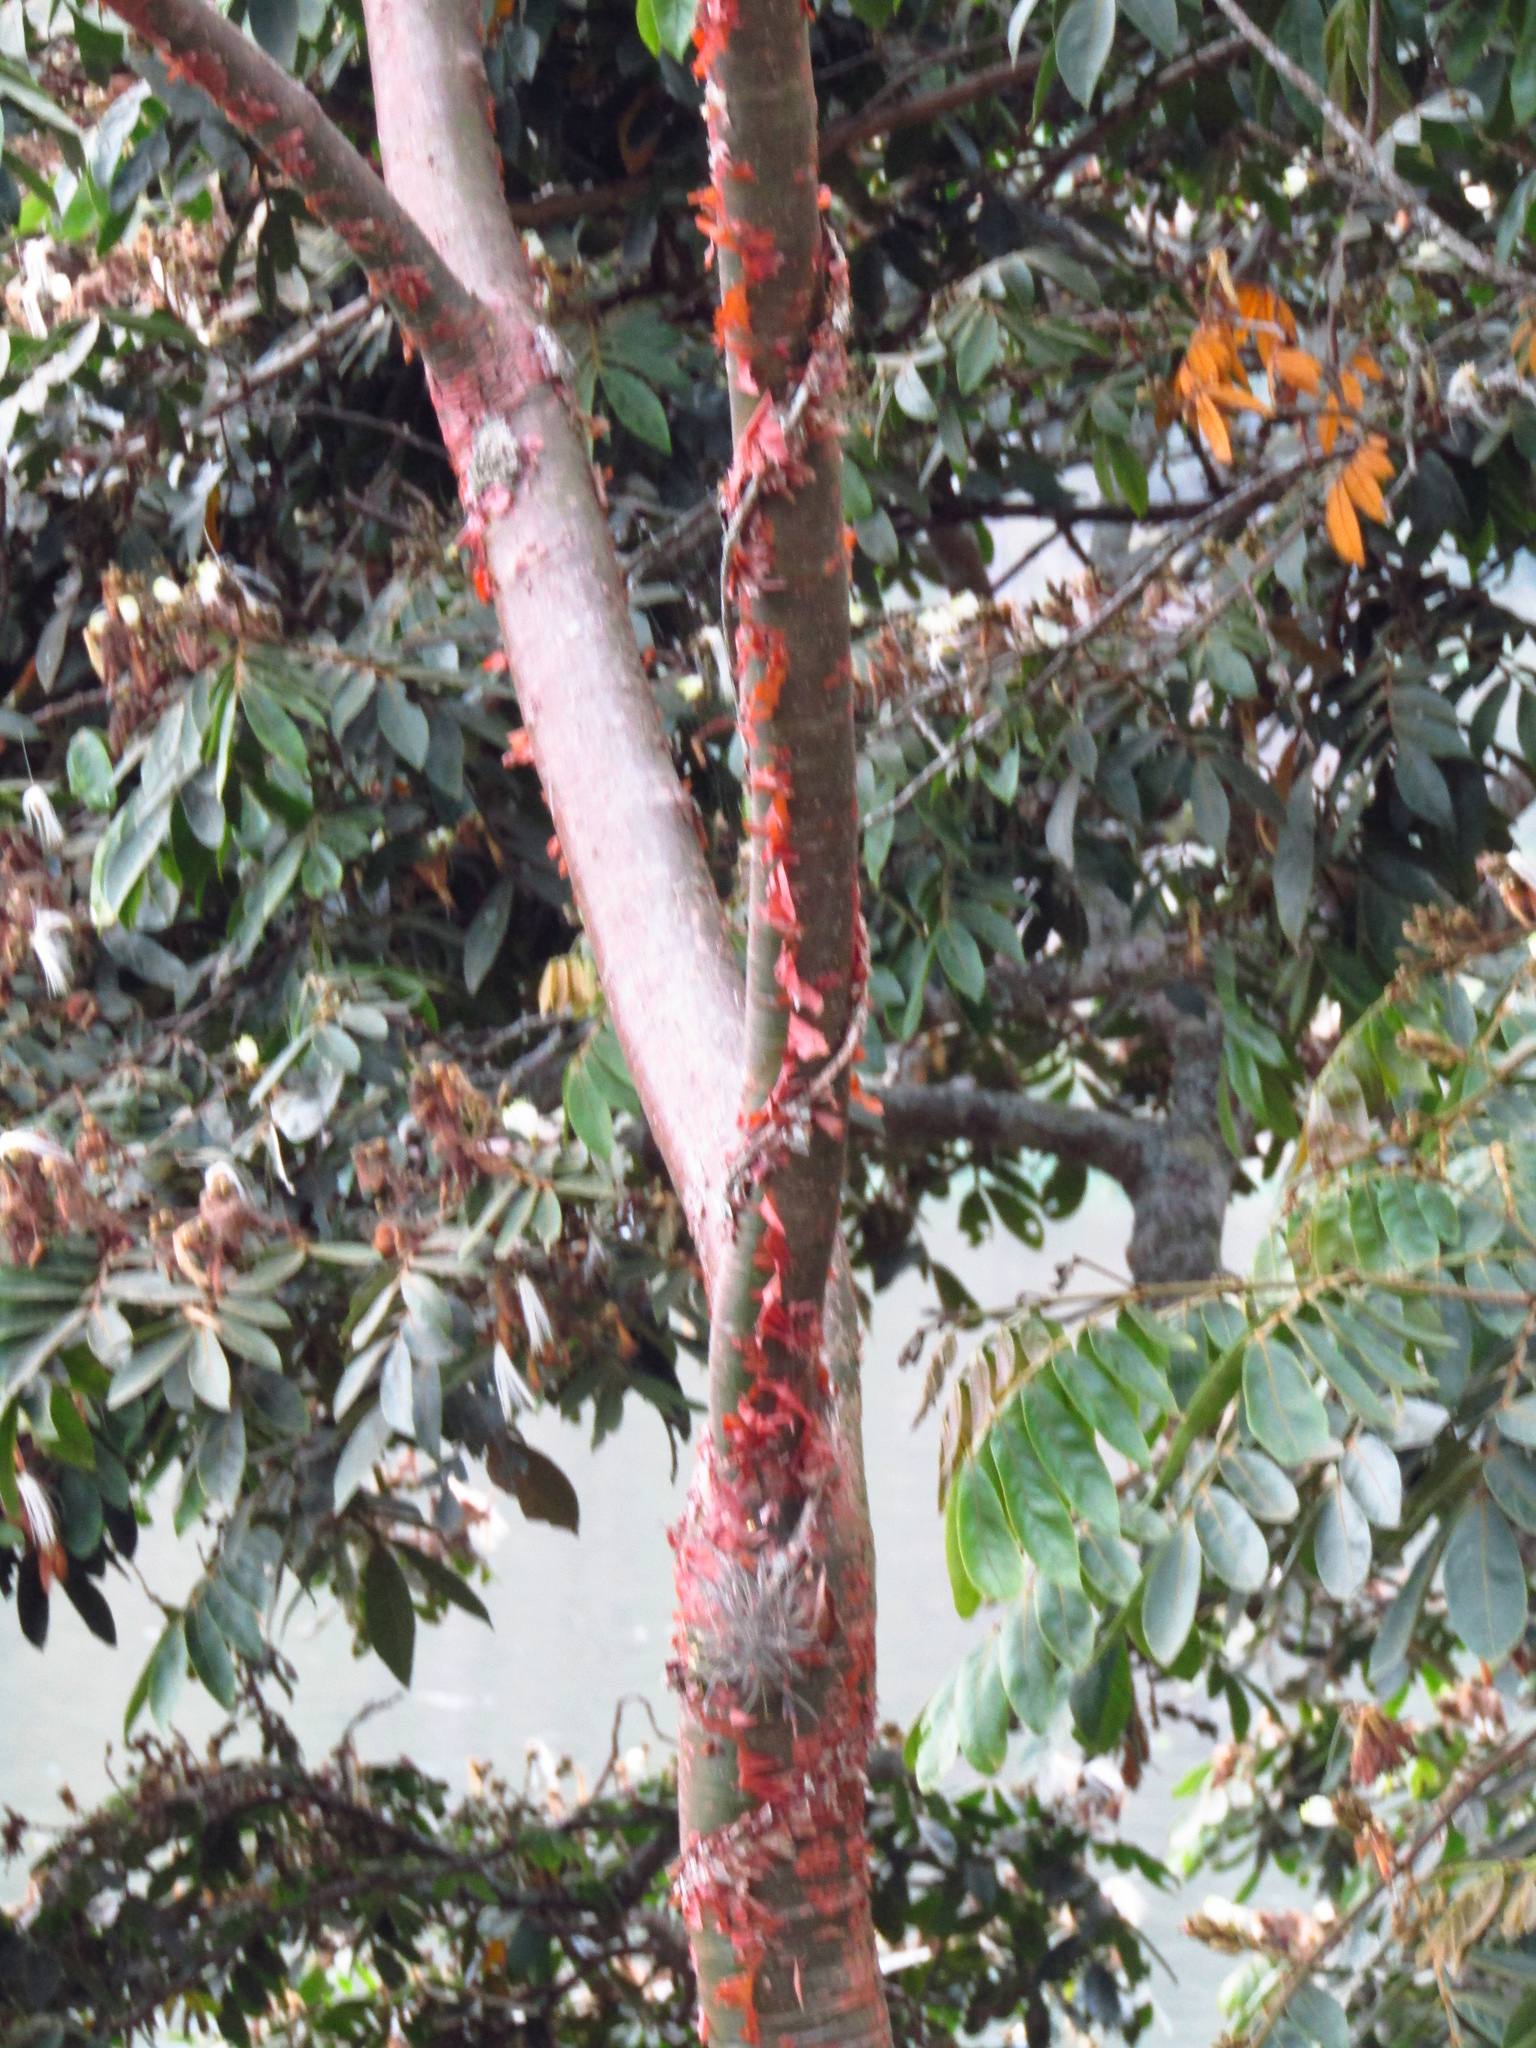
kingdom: Plantae
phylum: Tracheophyta
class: Magnoliopsida
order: Sapindales
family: Burseraceae
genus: Bursera
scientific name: Bursera simaruba
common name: Turpentine tree
